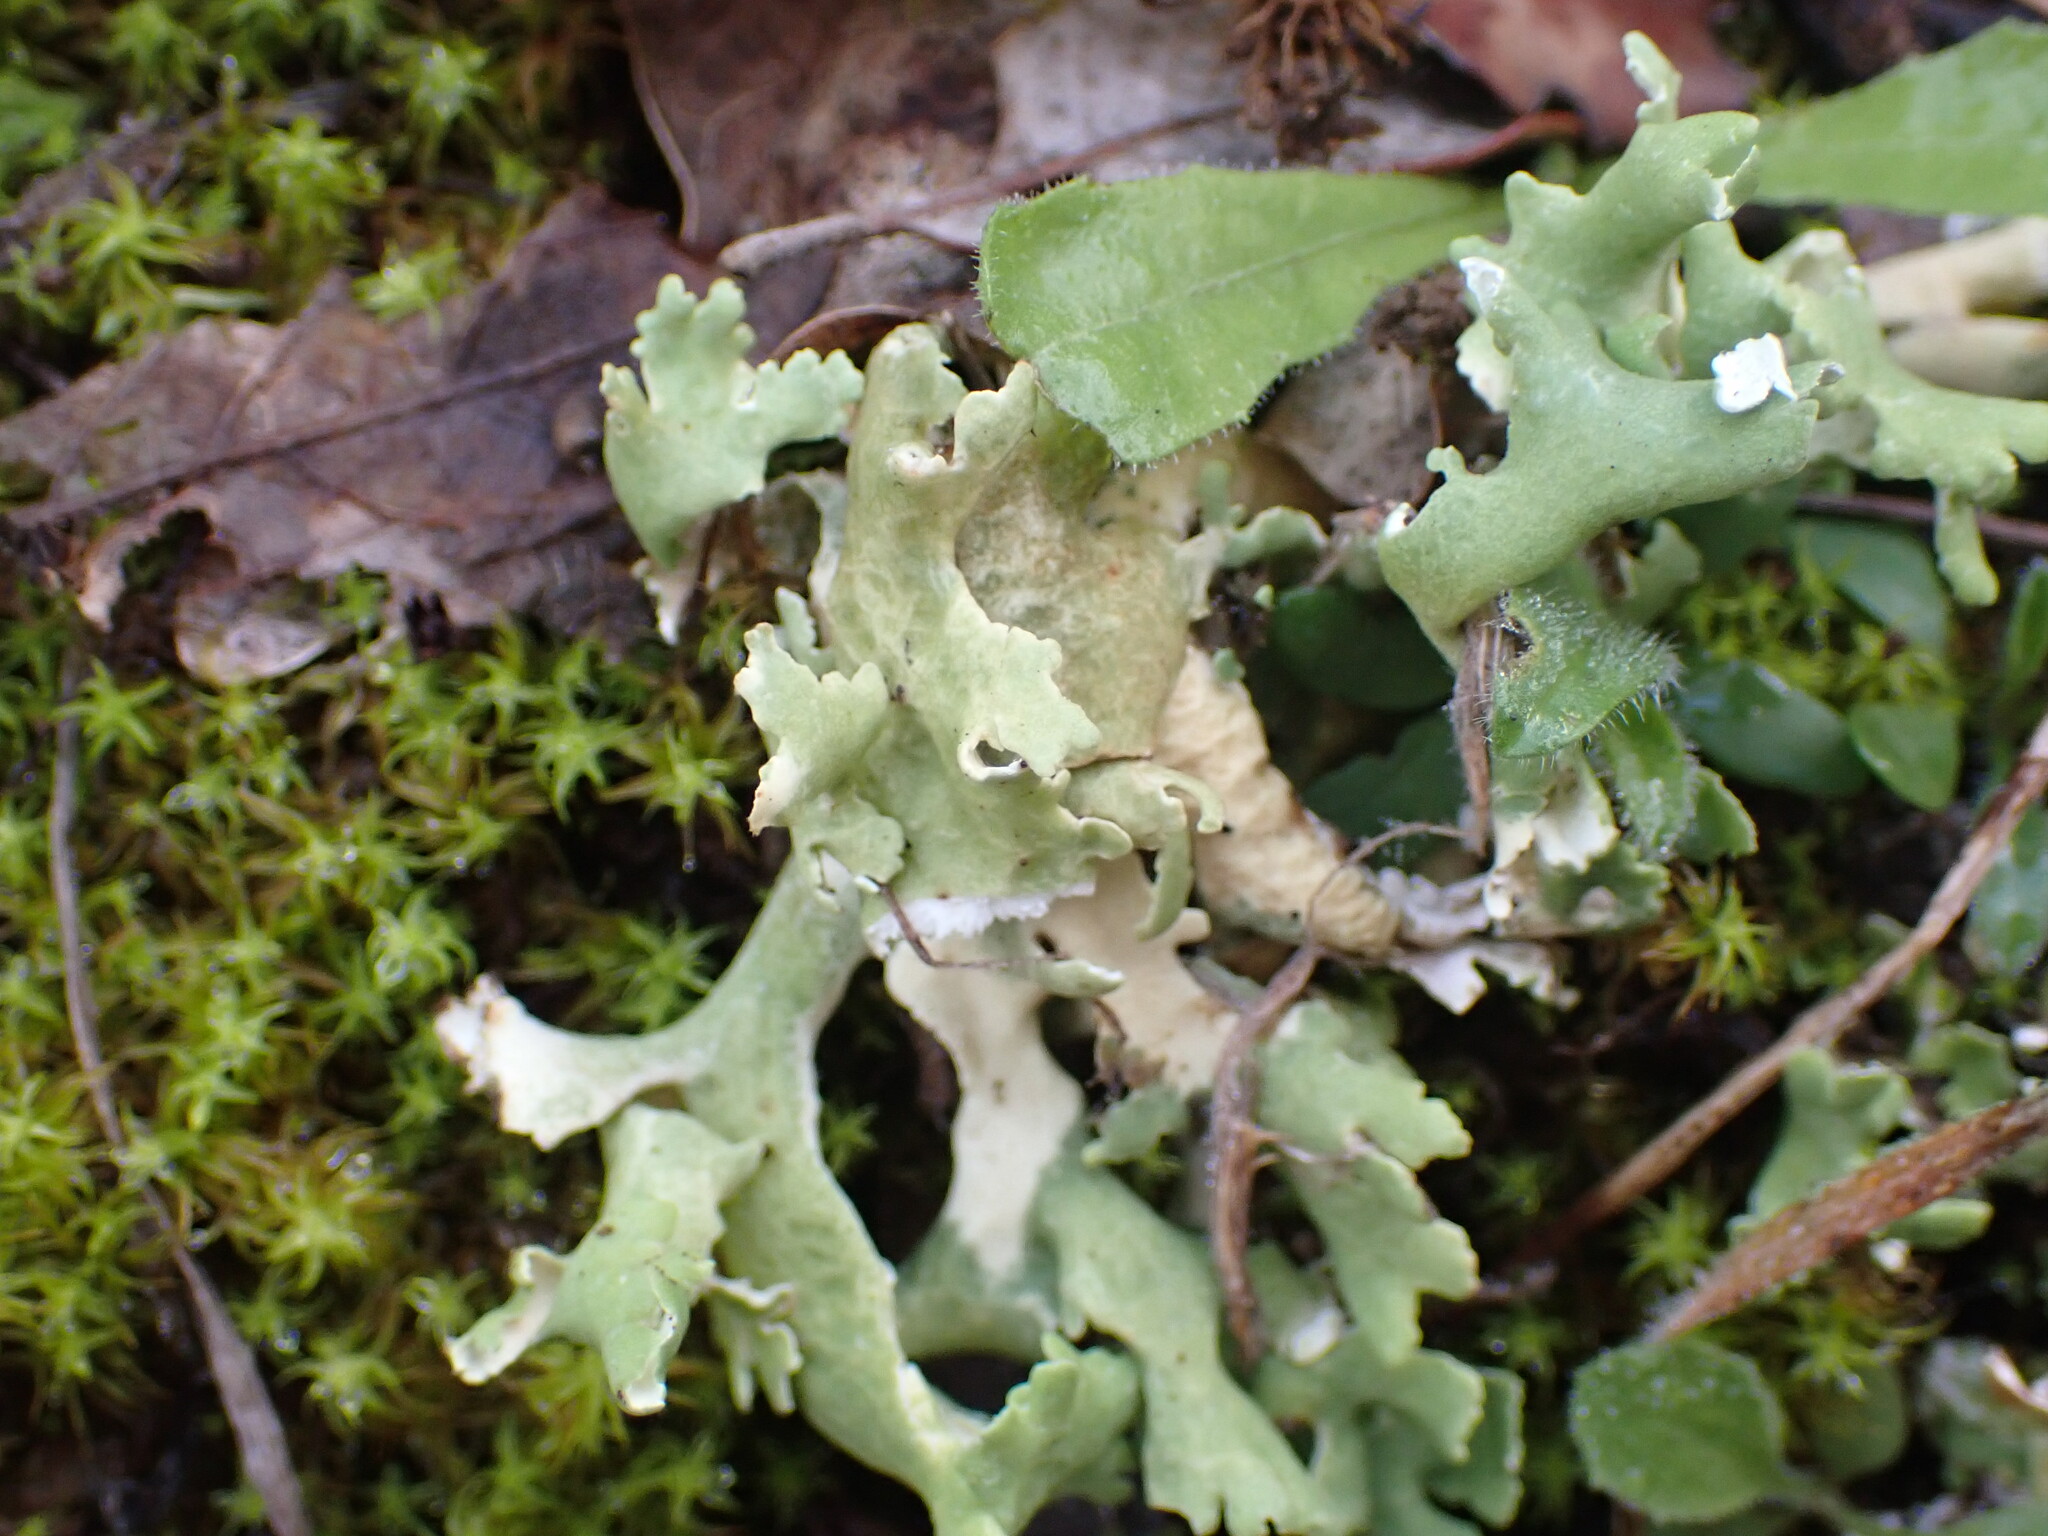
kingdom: Fungi
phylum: Ascomycota
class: Lecanoromycetes
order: Lecanorales
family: Cladoniaceae
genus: Cladonia
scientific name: Cladonia foliacea
